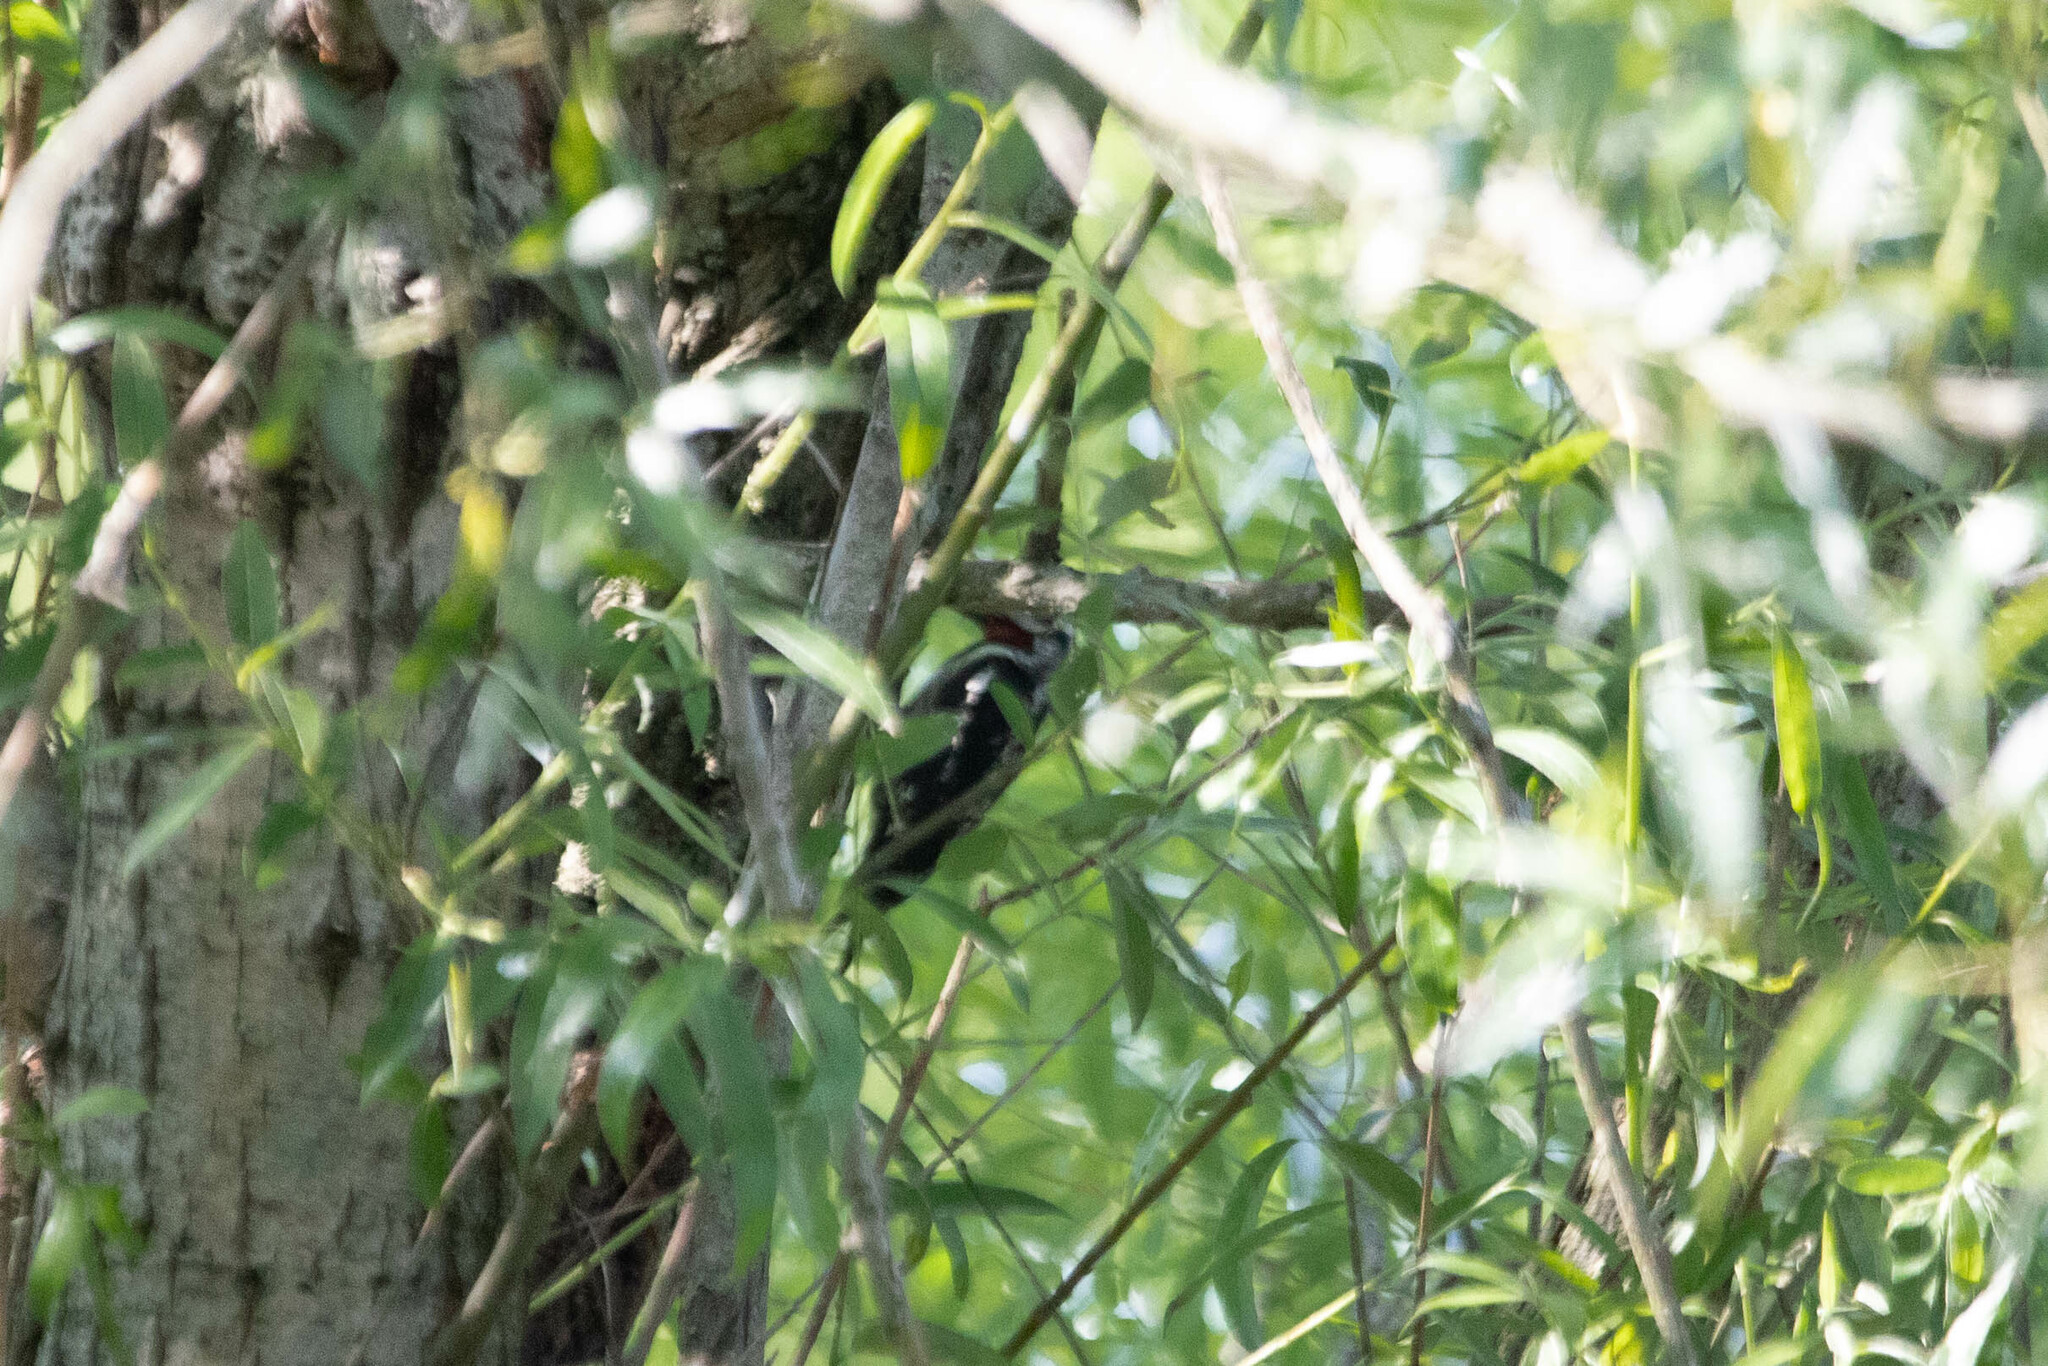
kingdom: Animalia
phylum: Chordata
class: Aves
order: Piciformes
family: Picidae
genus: Sphyrapicus
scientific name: Sphyrapicus varius
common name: Yellow-bellied sapsucker
